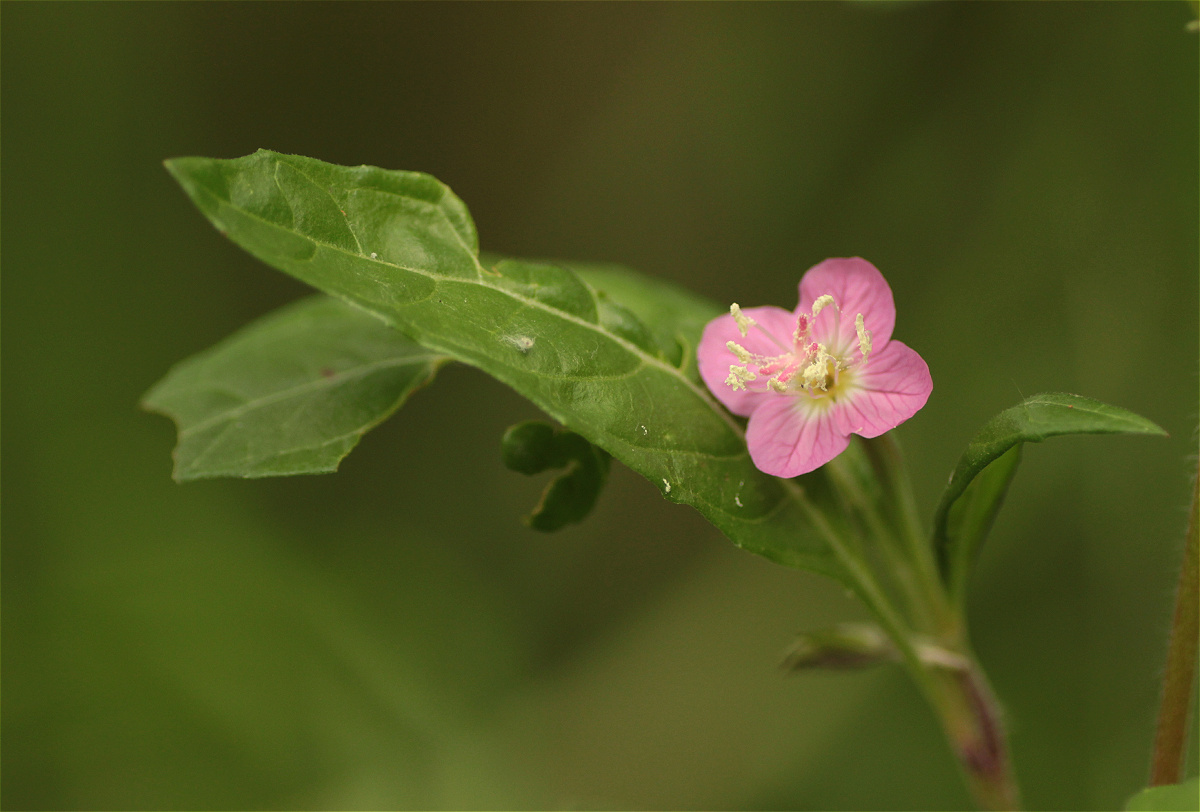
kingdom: Plantae
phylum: Tracheophyta
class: Magnoliopsida
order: Myrtales
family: Onagraceae
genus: Oenothera
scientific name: Oenothera rosea
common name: Rosy evening-primrose
